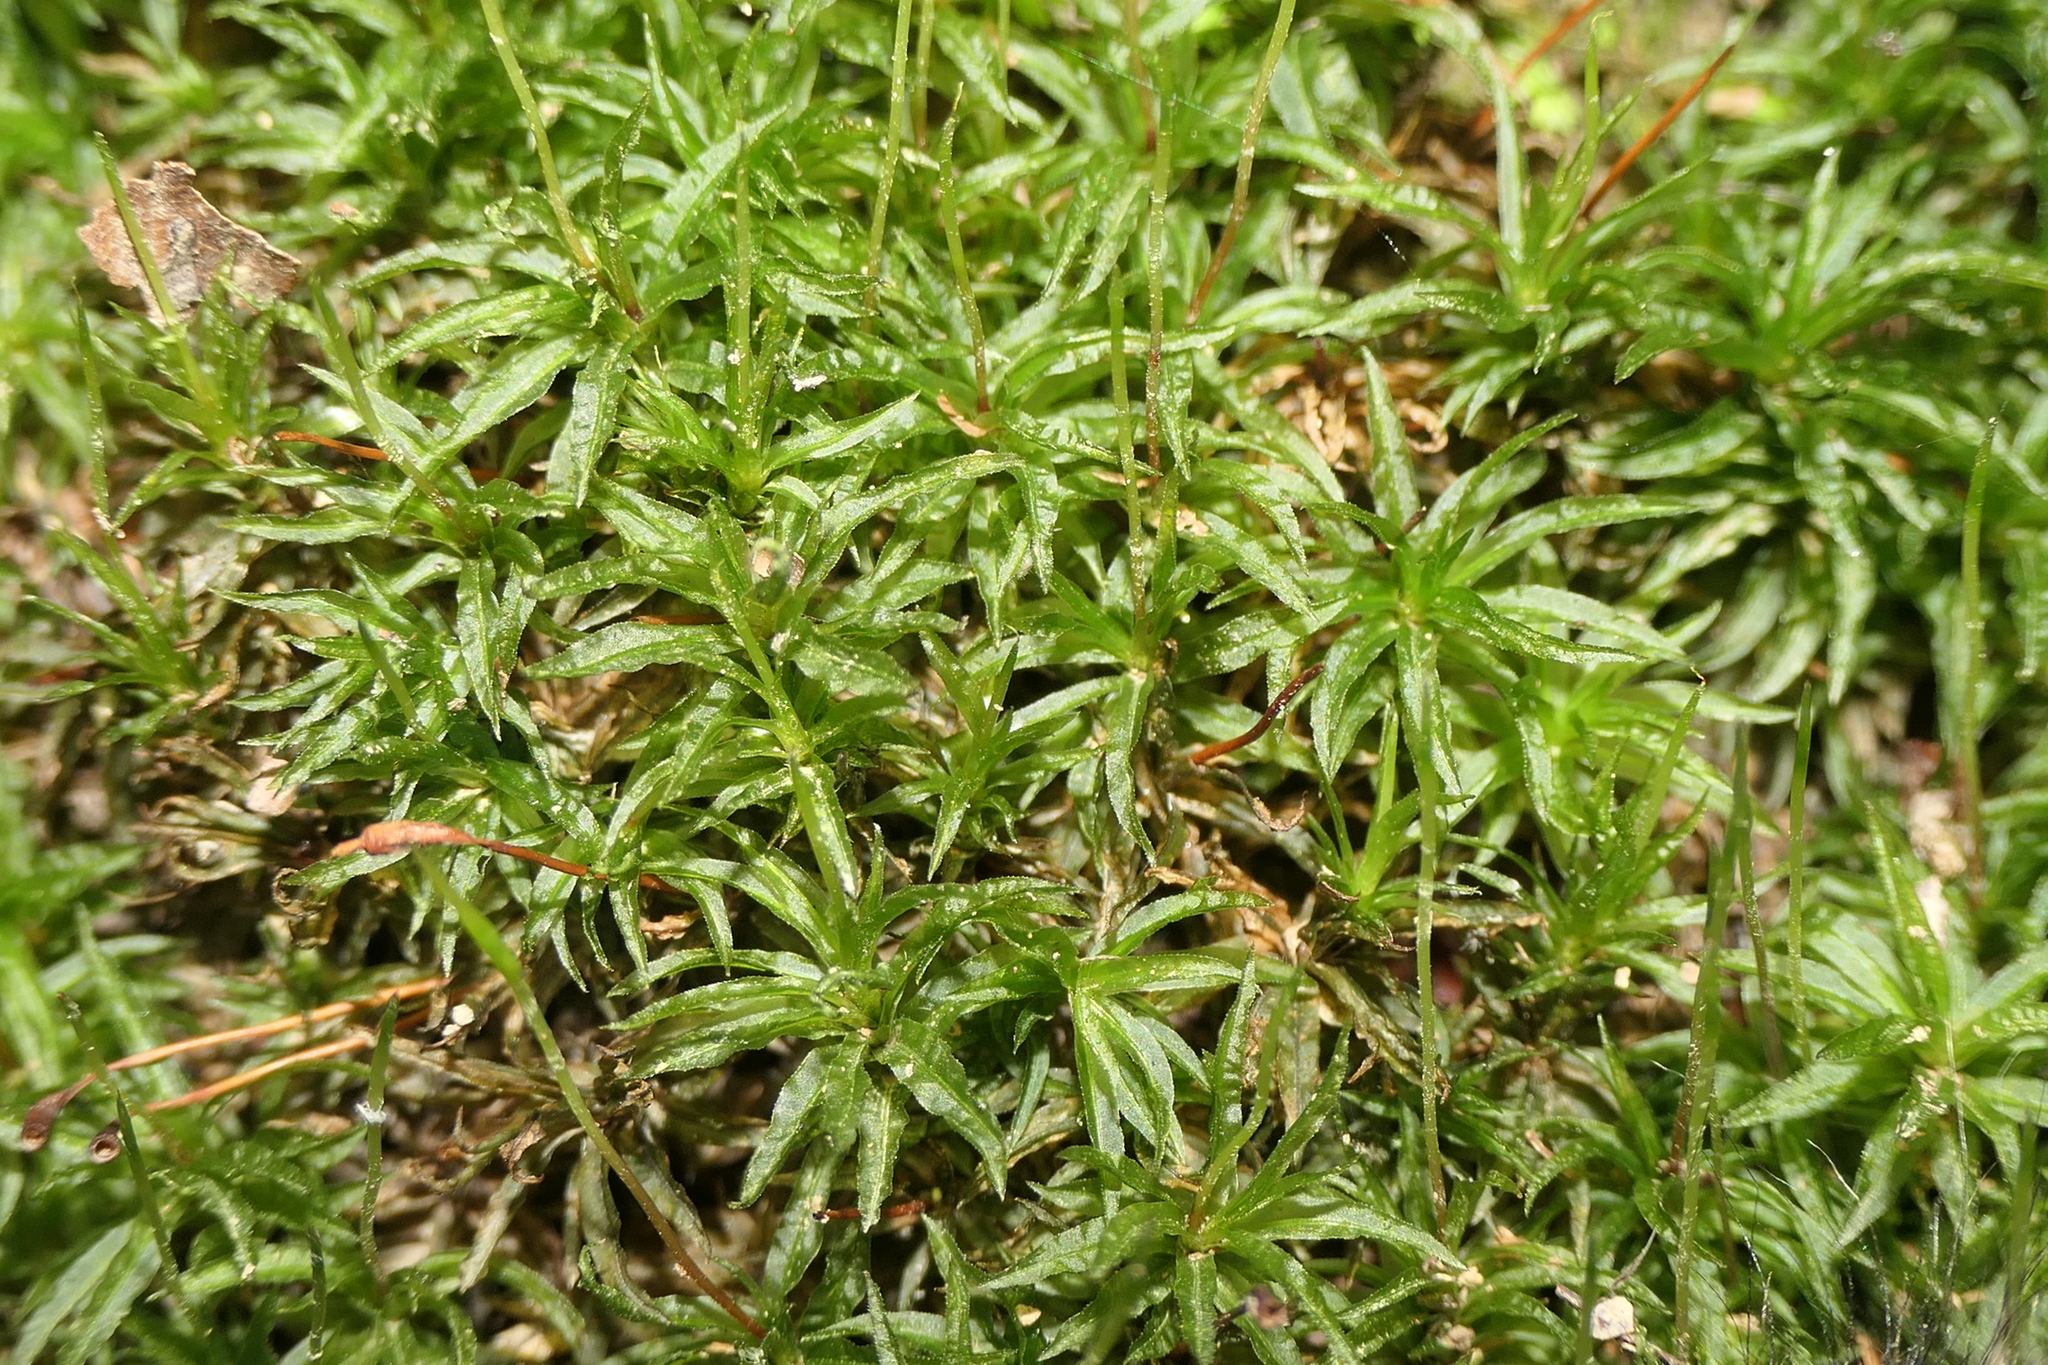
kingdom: Plantae
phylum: Bryophyta
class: Polytrichopsida
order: Polytrichales
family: Polytrichaceae
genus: Atrichum
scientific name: Atrichum undulatum
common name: Common smoothcap
